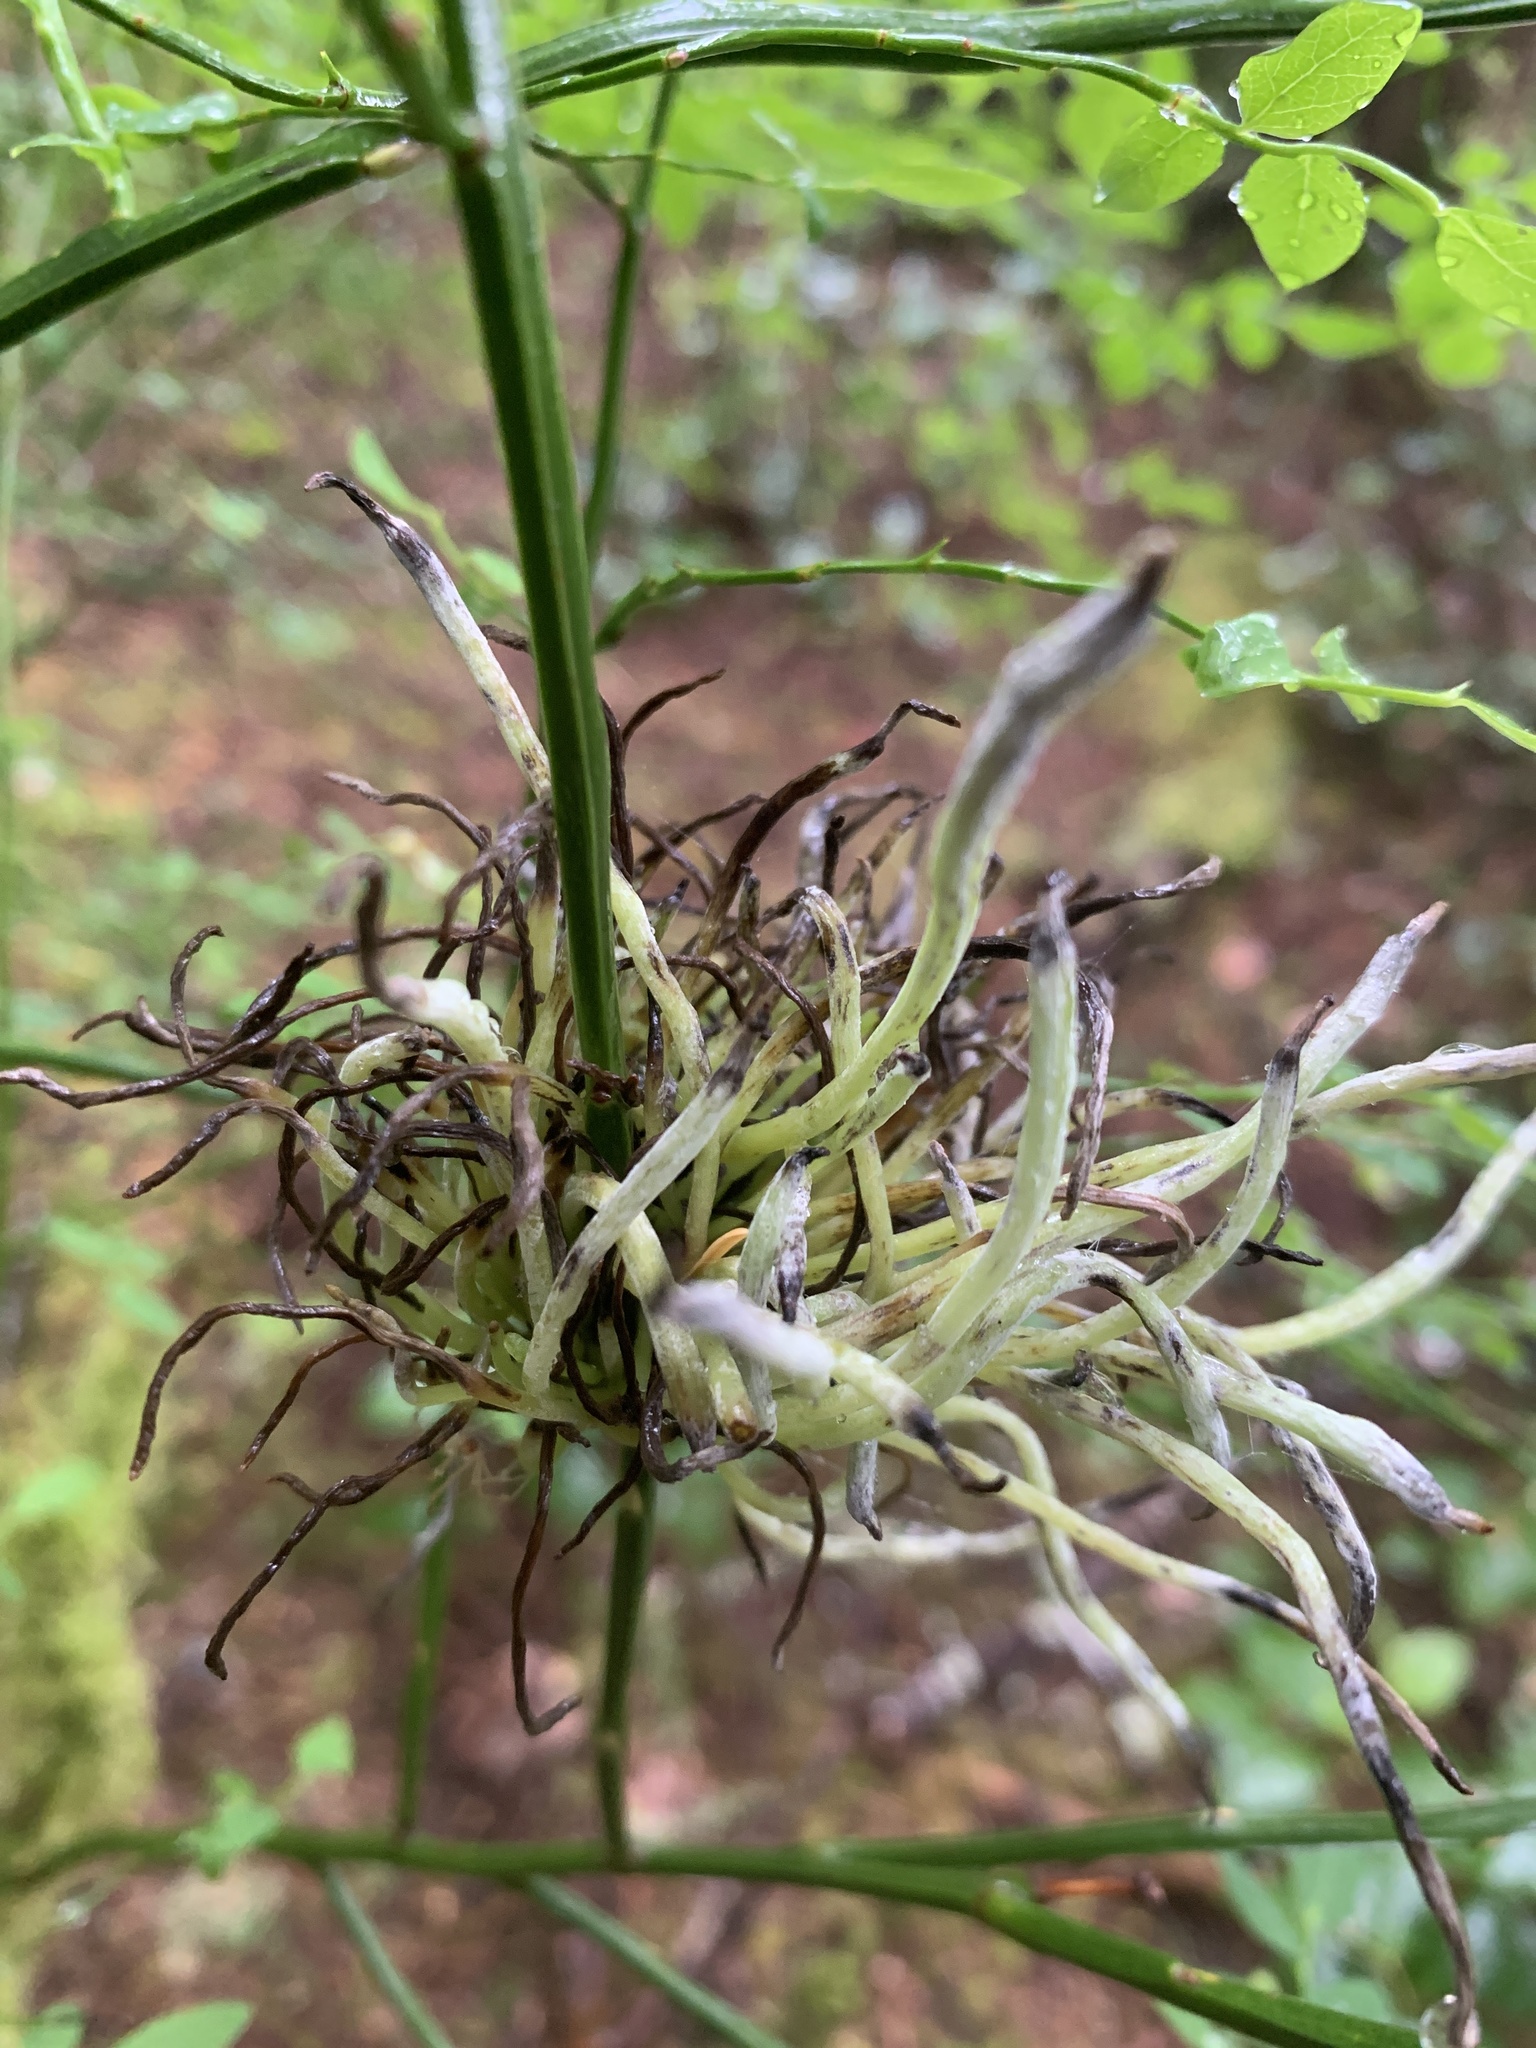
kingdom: Fungi
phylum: Basidiomycota
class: Exobasidiomycetes
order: Exobasidiales
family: Exobasidiaceae
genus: Exobasidium
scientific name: Exobasidium parvifolii
